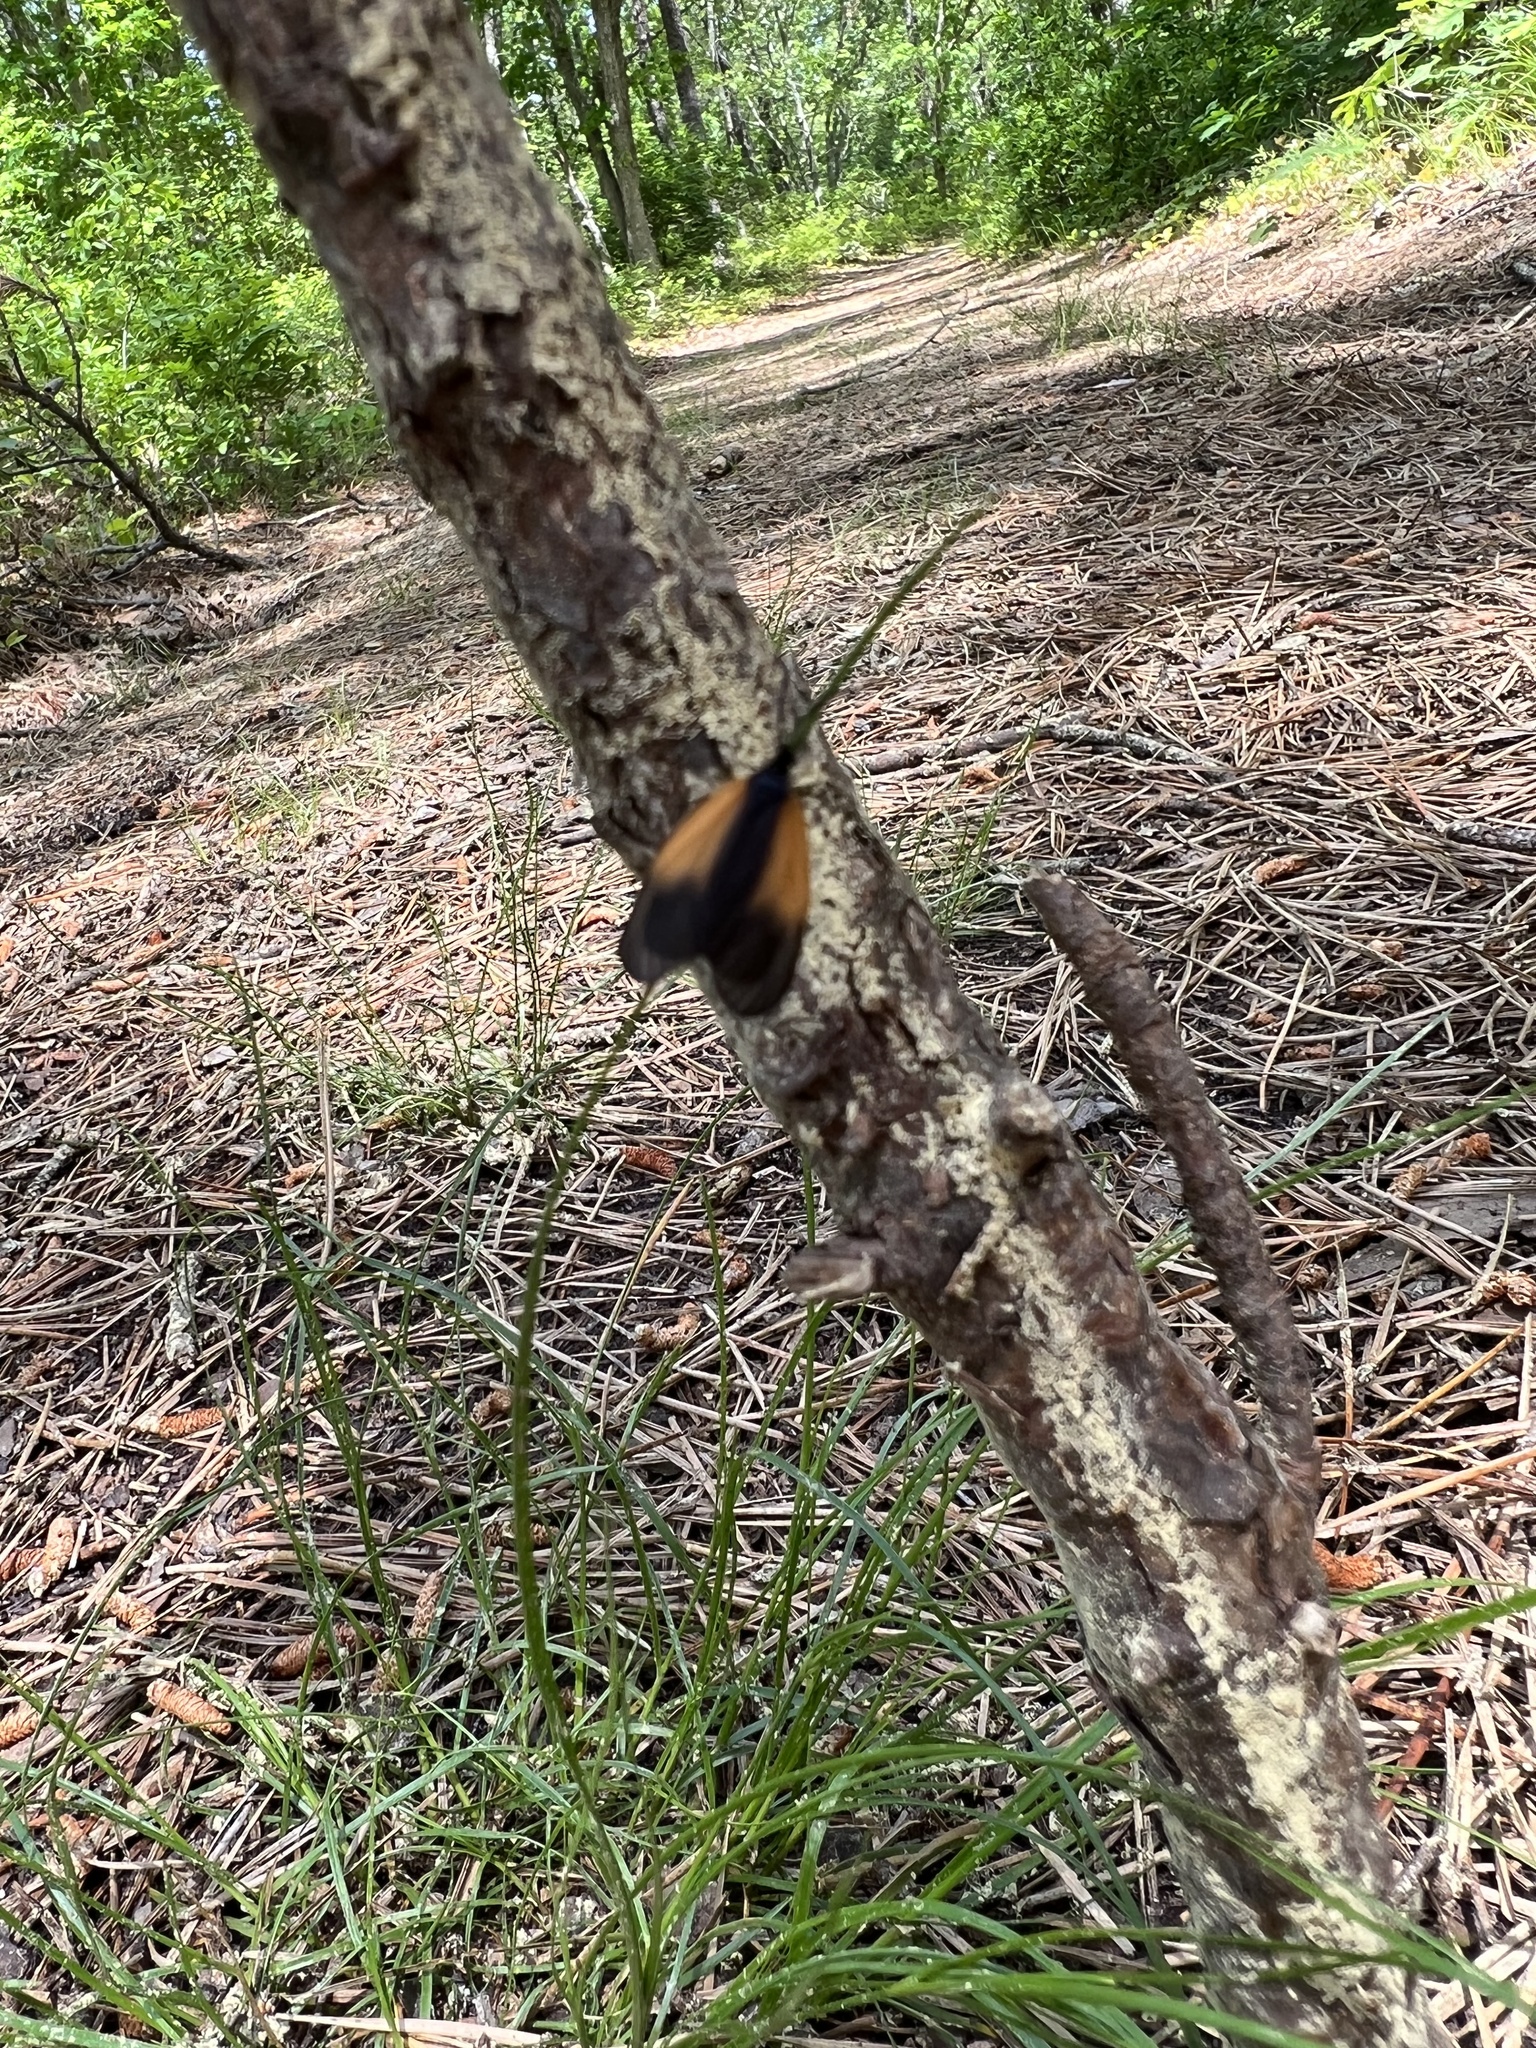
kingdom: Animalia
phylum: Arthropoda
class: Insecta
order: Lepidoptera
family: Zygaenidae
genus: Malthaca
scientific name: Malthaca dimidiata
